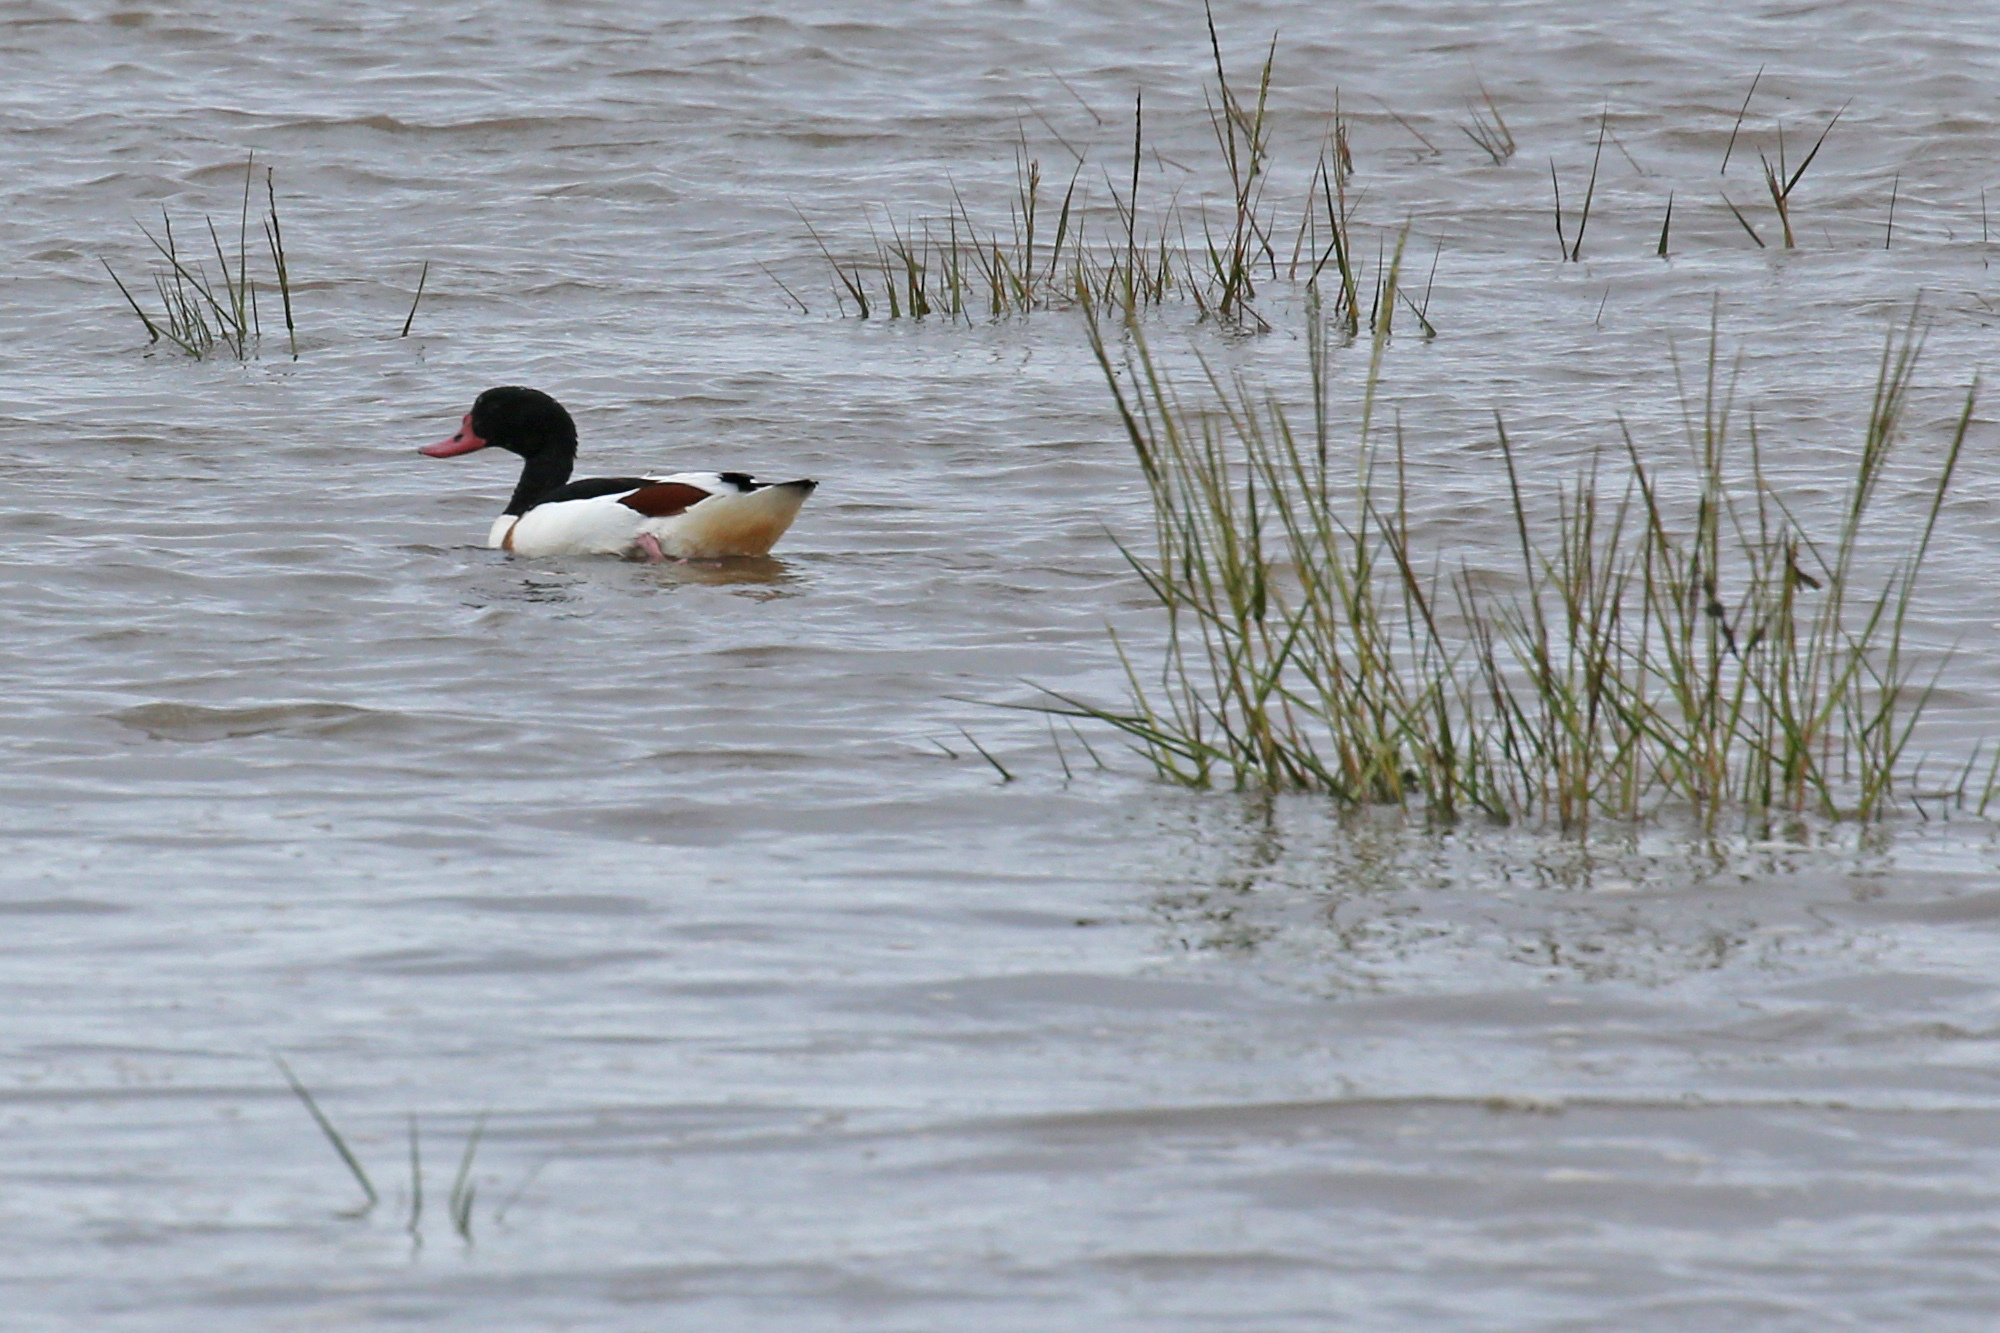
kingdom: Animalia
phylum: Chordata
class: Aves
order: Anseriformes
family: Anatidae
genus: Tadorna
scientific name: Tadorna tadorna
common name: Common shelduck
